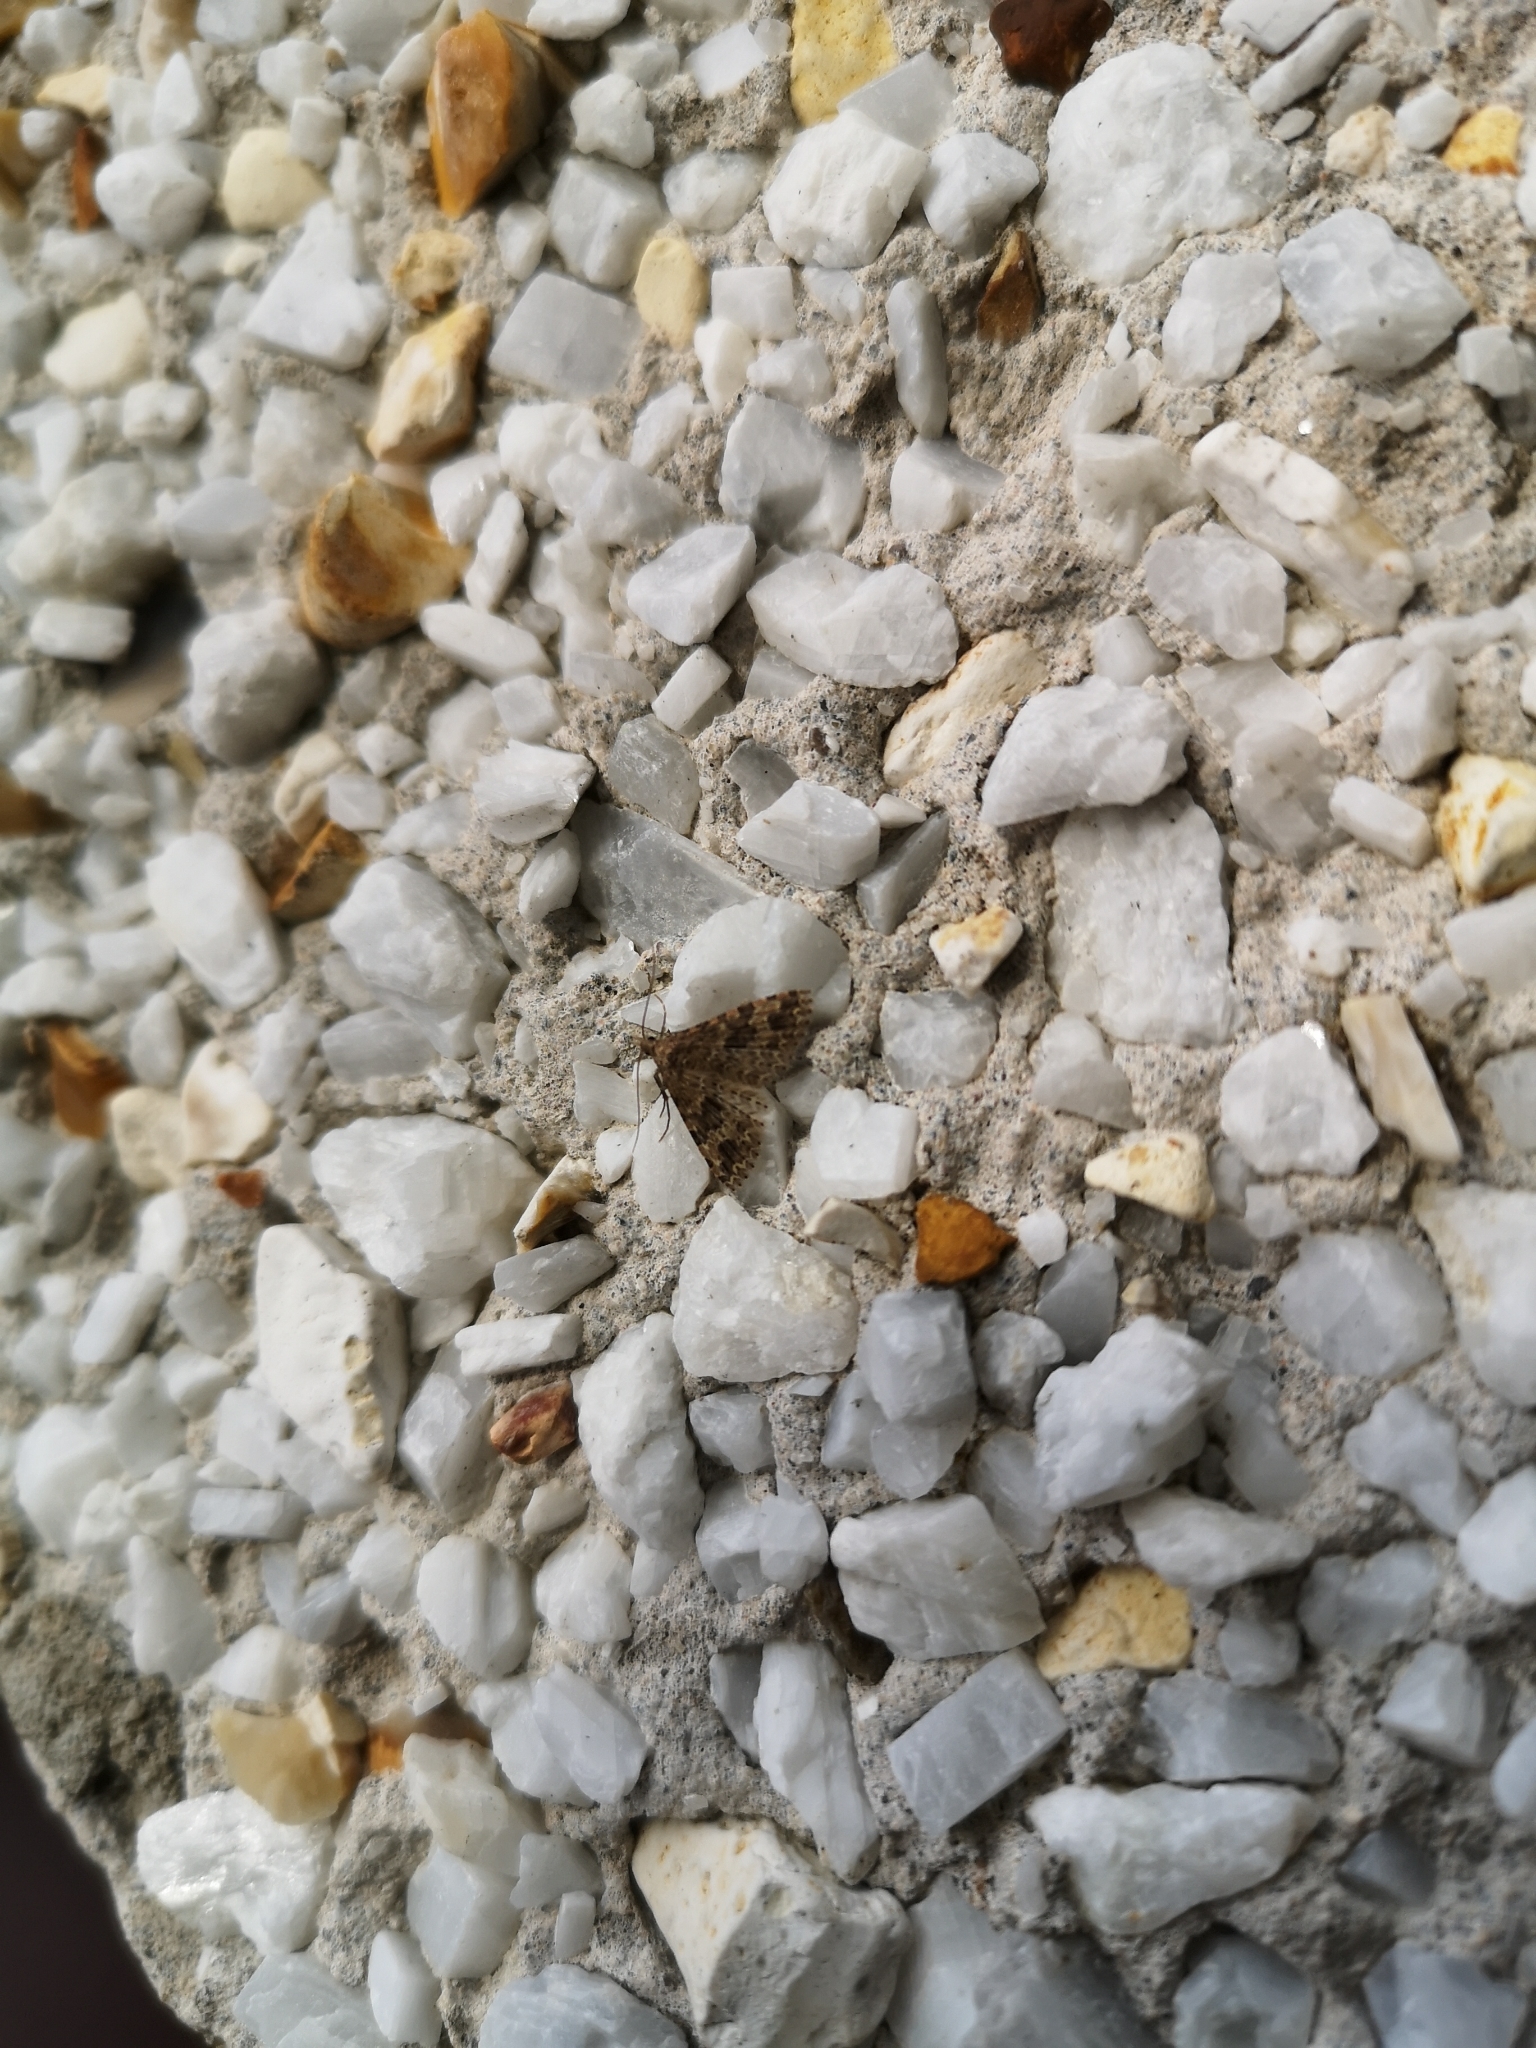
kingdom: Animalia
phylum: Arthropoda
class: Insecta
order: Lepidoptera
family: Alucitidae
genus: Alucita
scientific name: Alucita hexadactyla
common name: Twenty-plume moth
